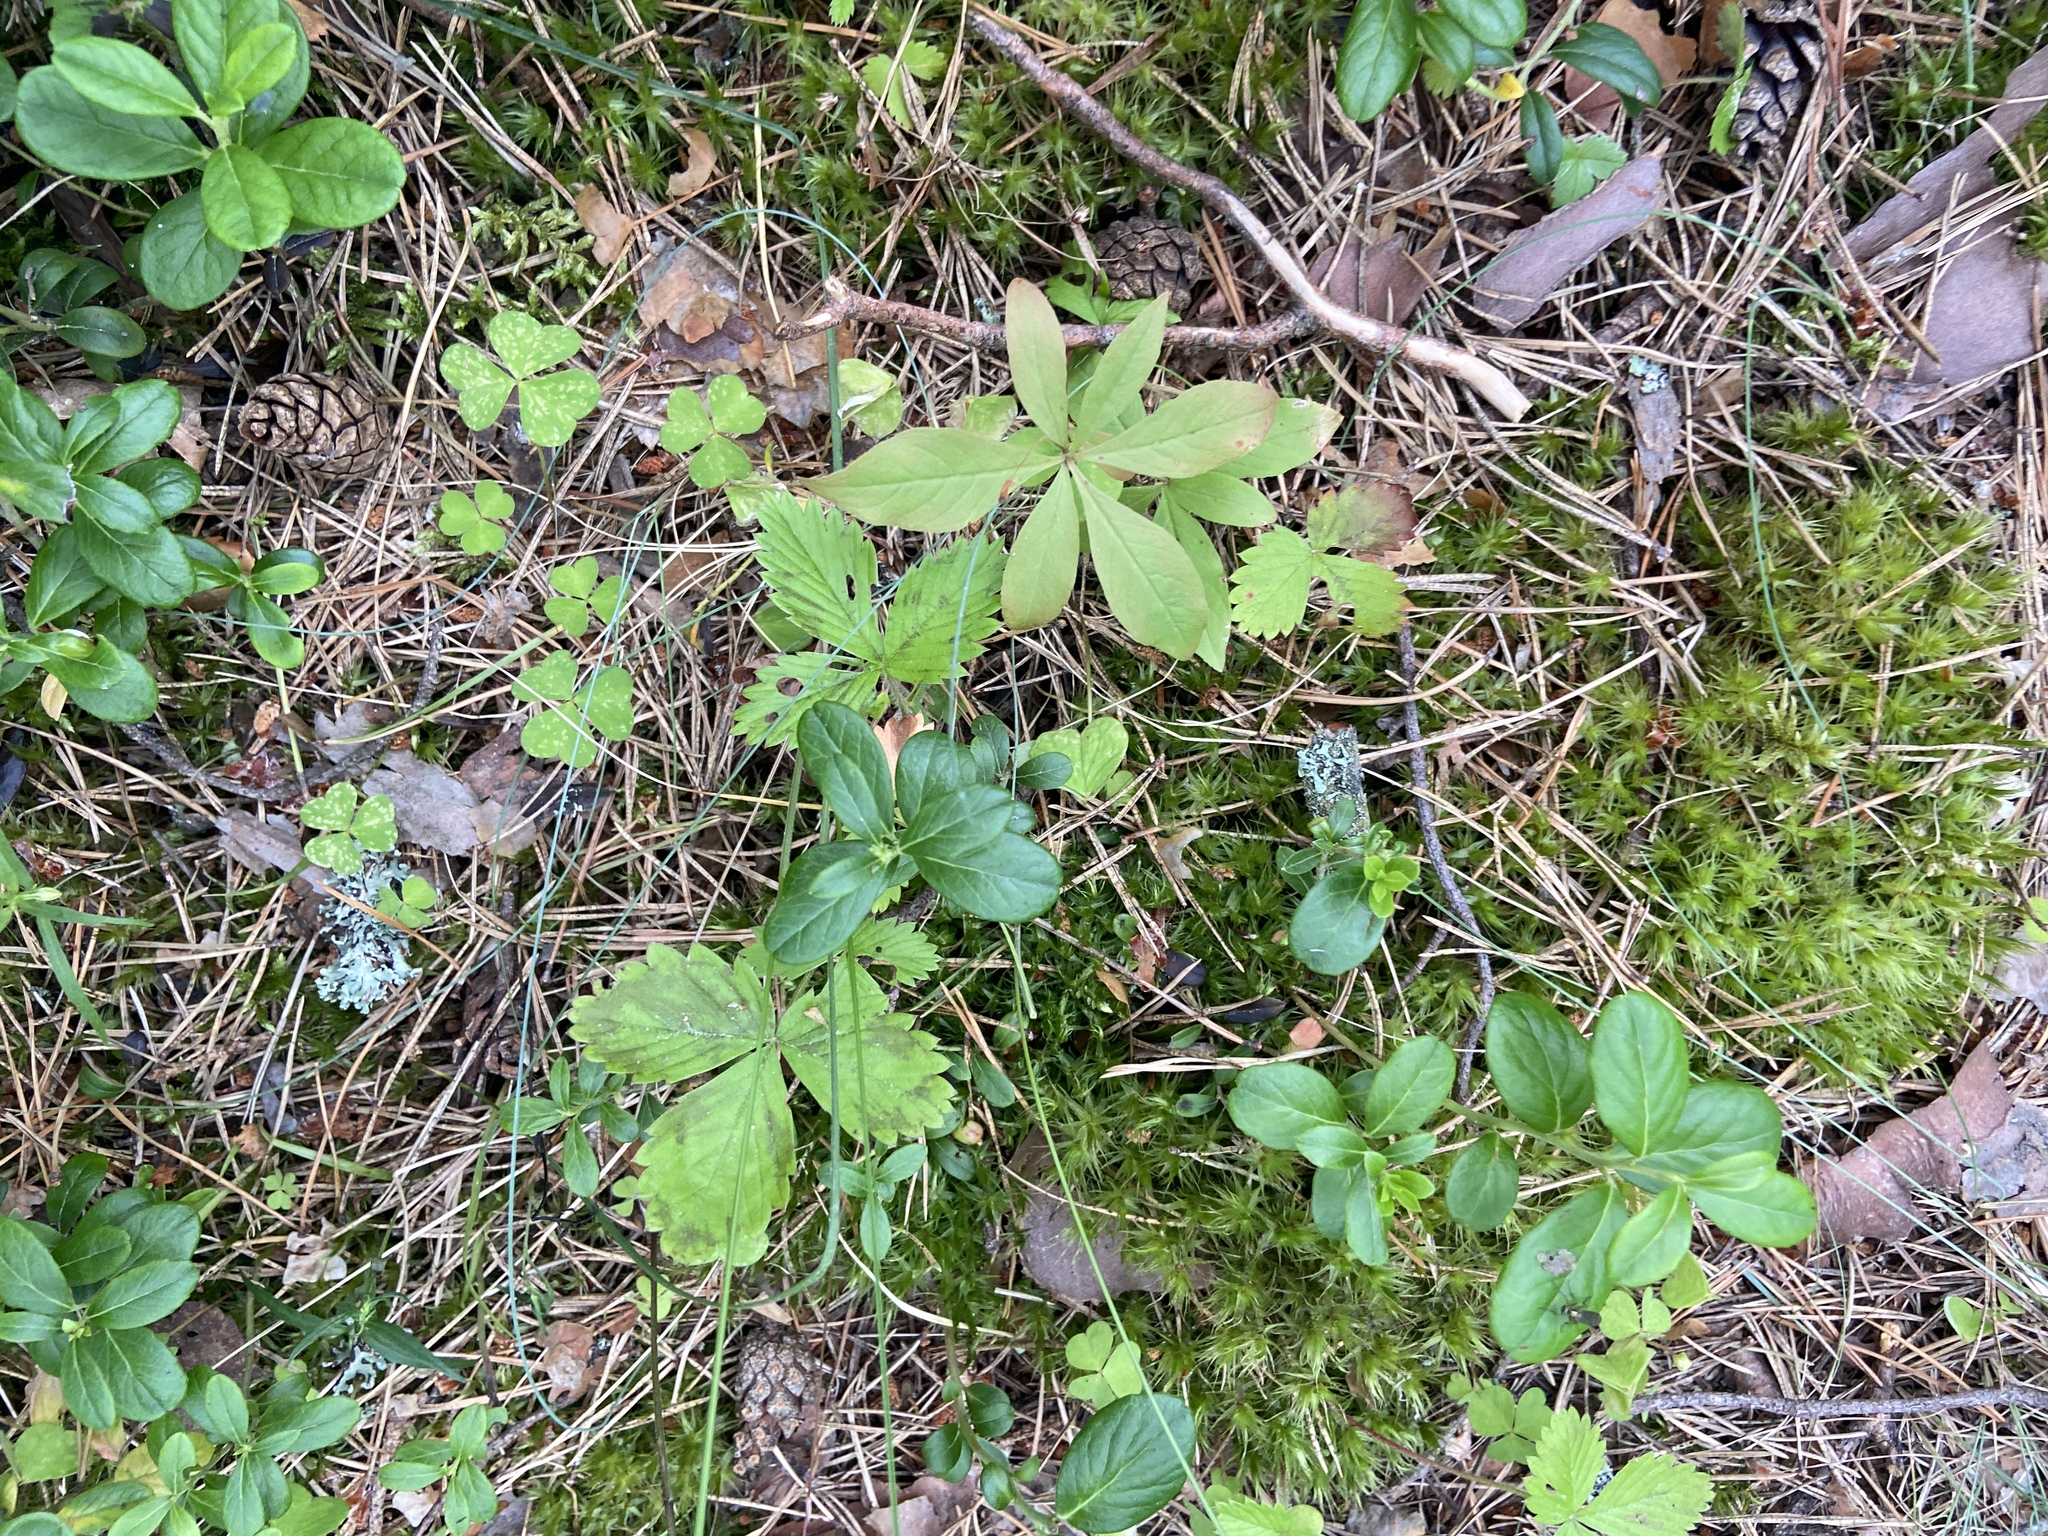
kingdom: Plantae
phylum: Tracheophyta
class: Magnoliopsida
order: Ericales
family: Ericaceae
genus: Vaccinium
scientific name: Vaccinium vitis-idaea
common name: Cowberry
